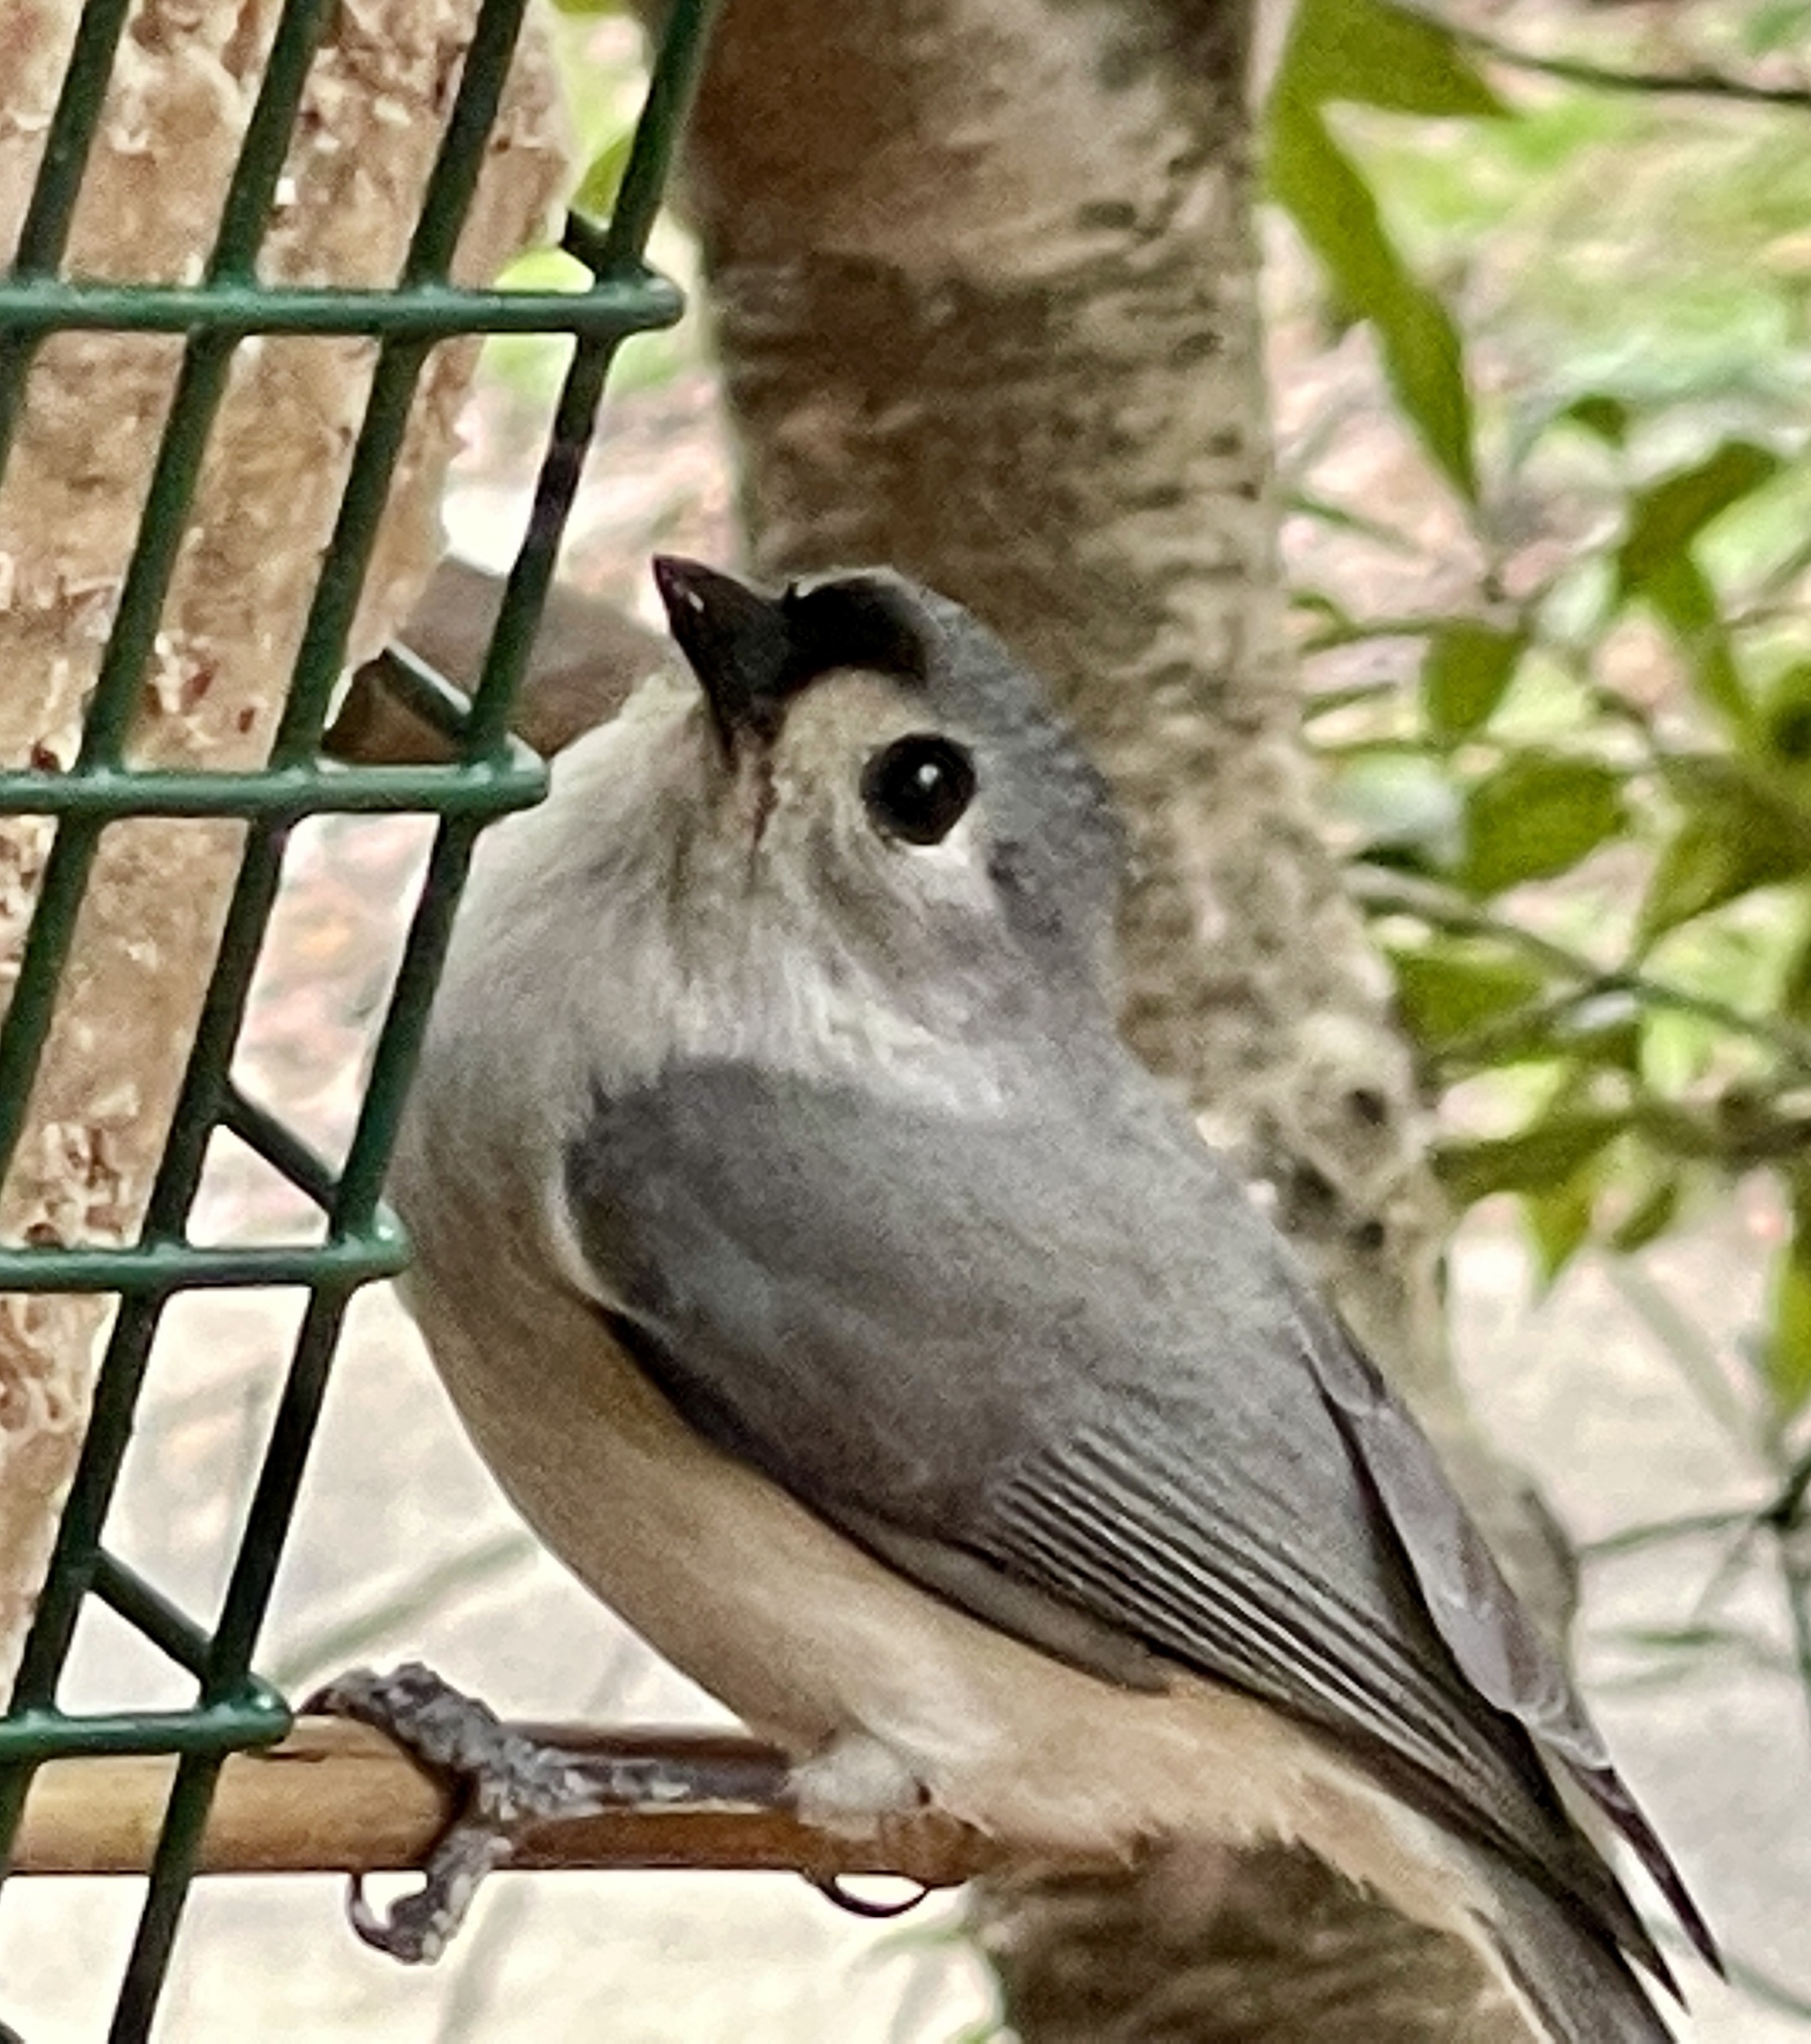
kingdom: Animalia
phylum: Chordata
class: Aves
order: Passeriformes
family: Paridae
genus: Baeolophus
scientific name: Baeolophus bicolor
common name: Tufted titmouse
